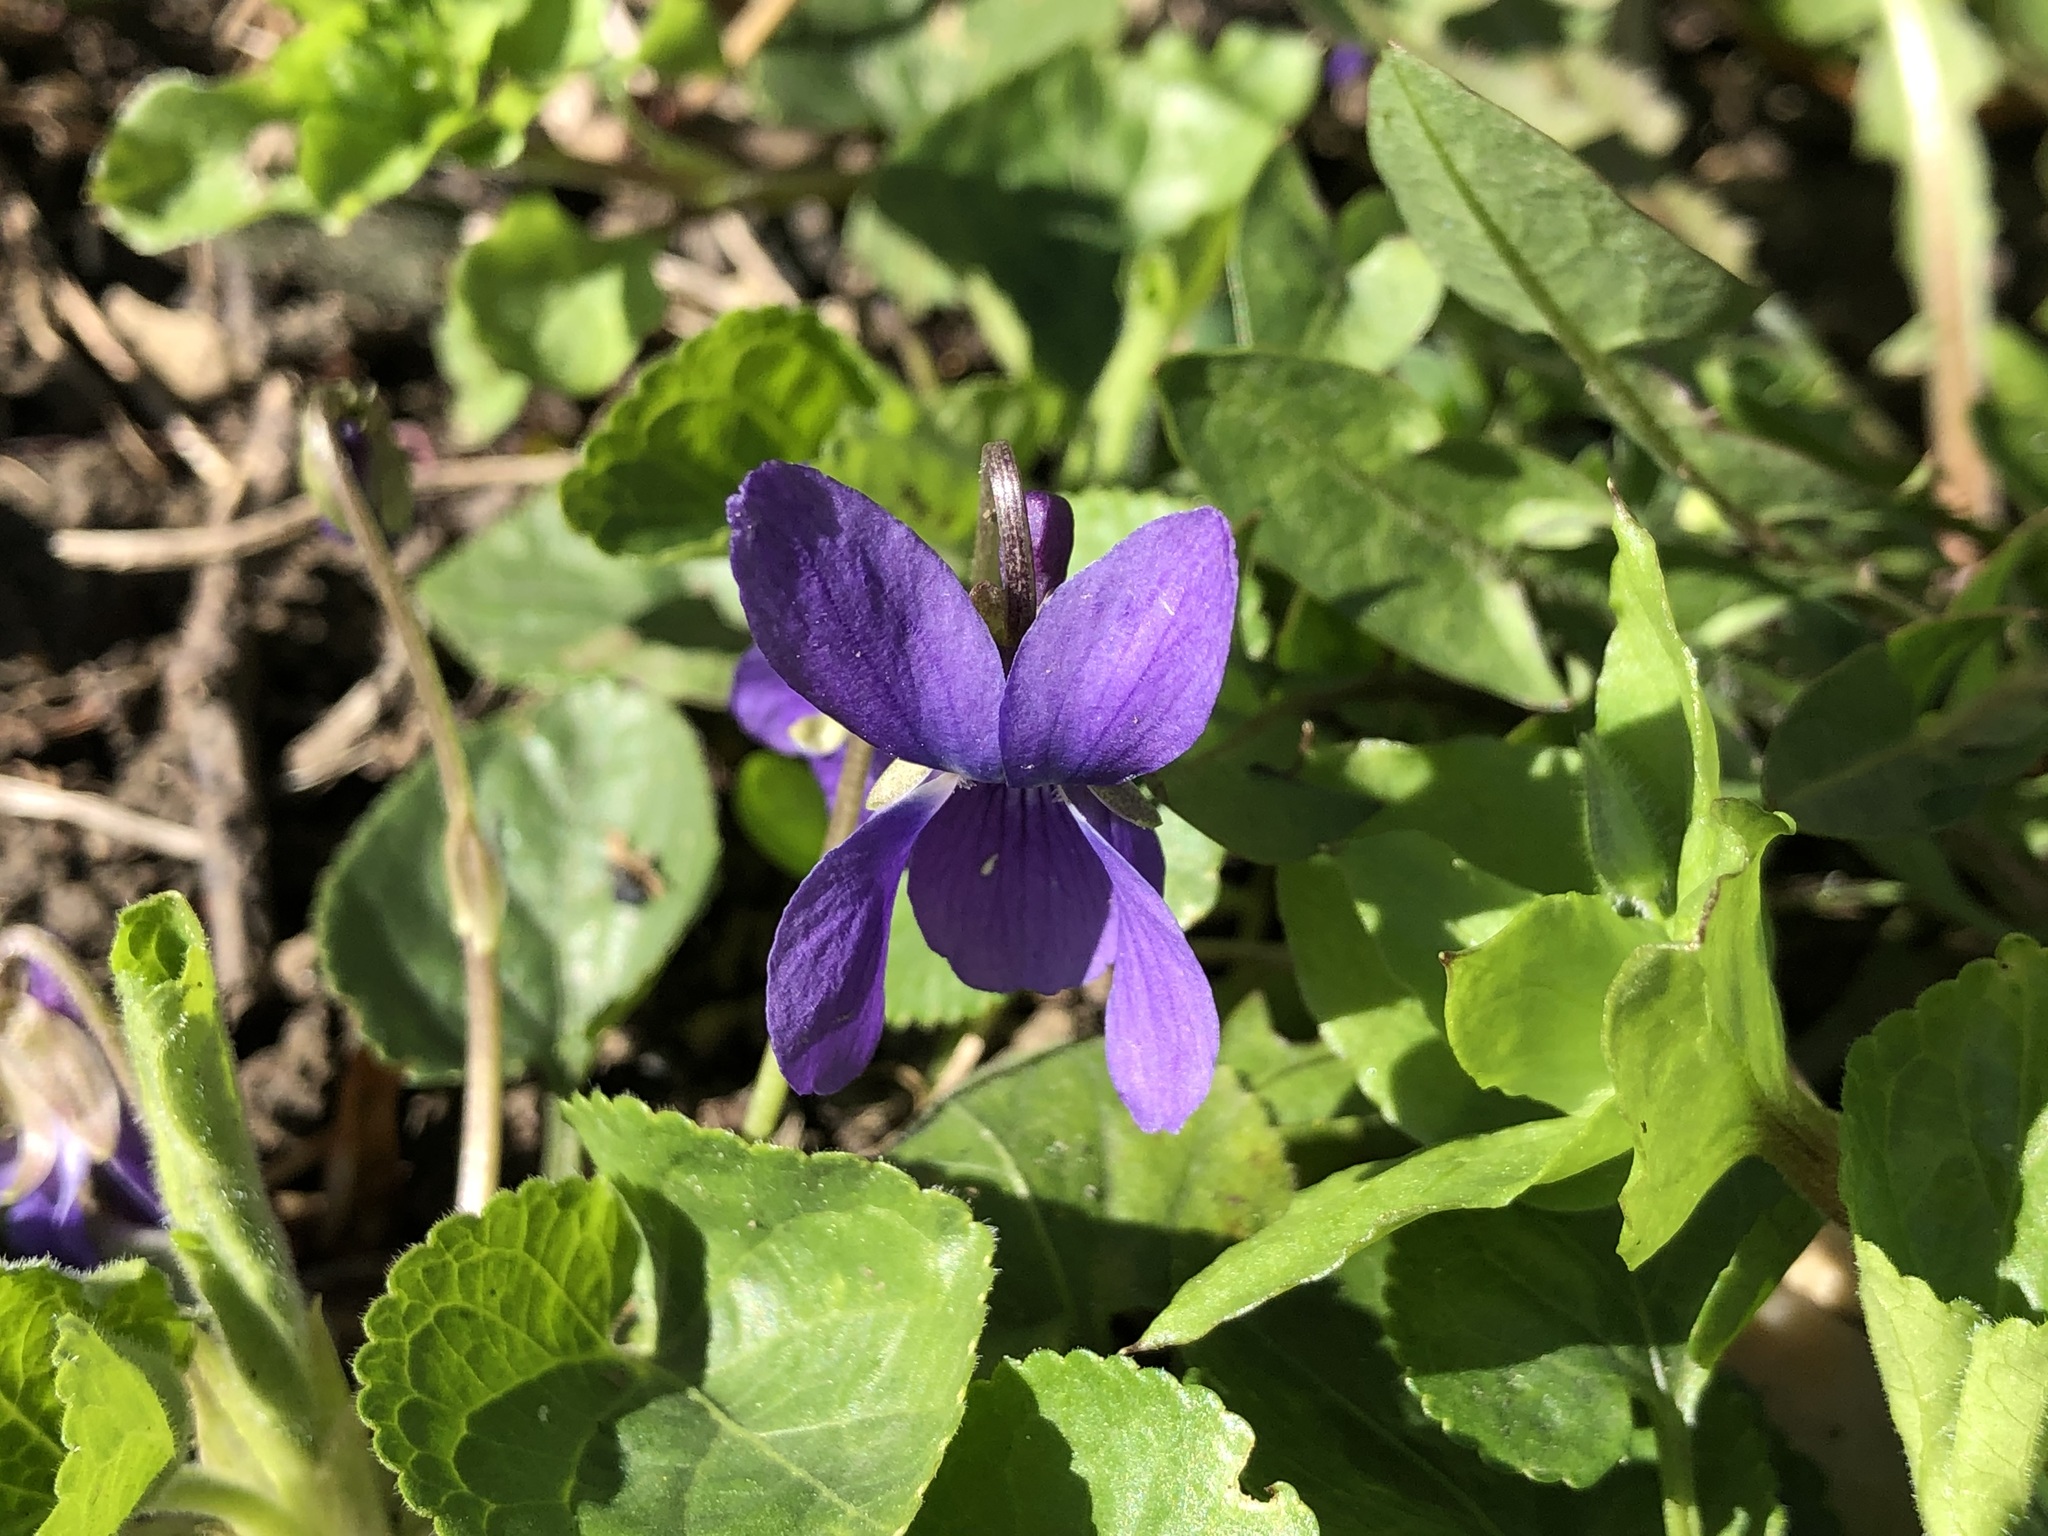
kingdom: Plantae
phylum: Tracheophyta
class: Magnoliopsida
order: Malpighiales
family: Violaceae
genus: Viola
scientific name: Viola reichenbachiana
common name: Early dog-violet
